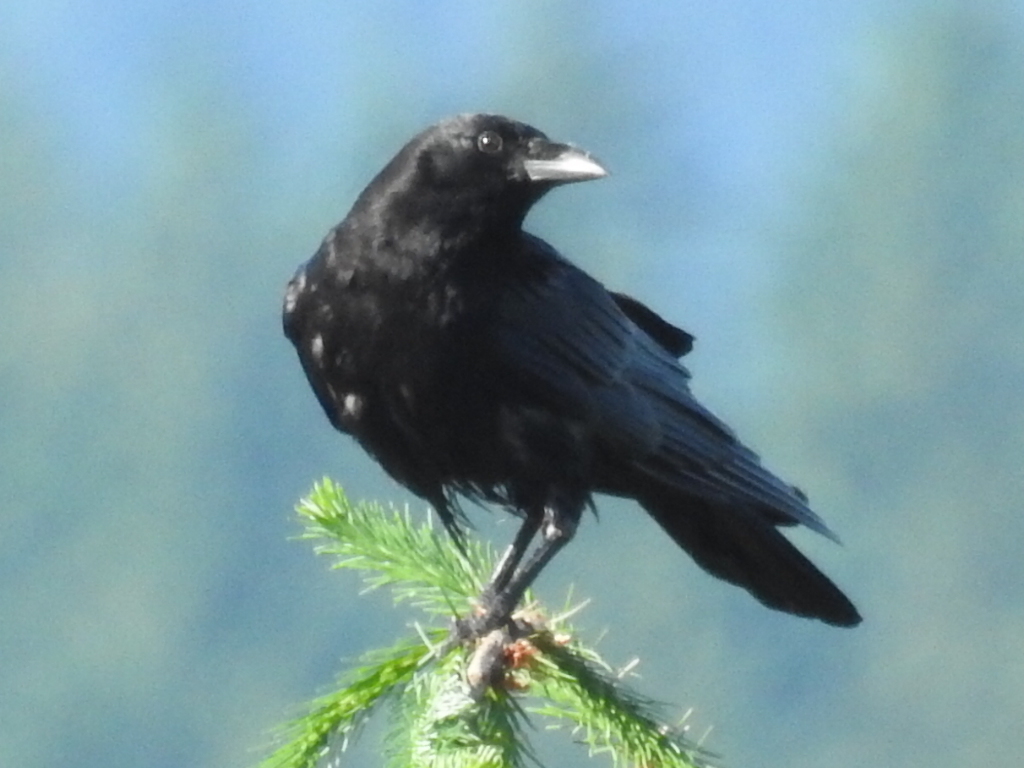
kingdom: Animalia
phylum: Chordata
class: Aves
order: Passeriformes
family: Corvidae
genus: Corvus
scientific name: Corvus brachyrhynchos
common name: American crow
